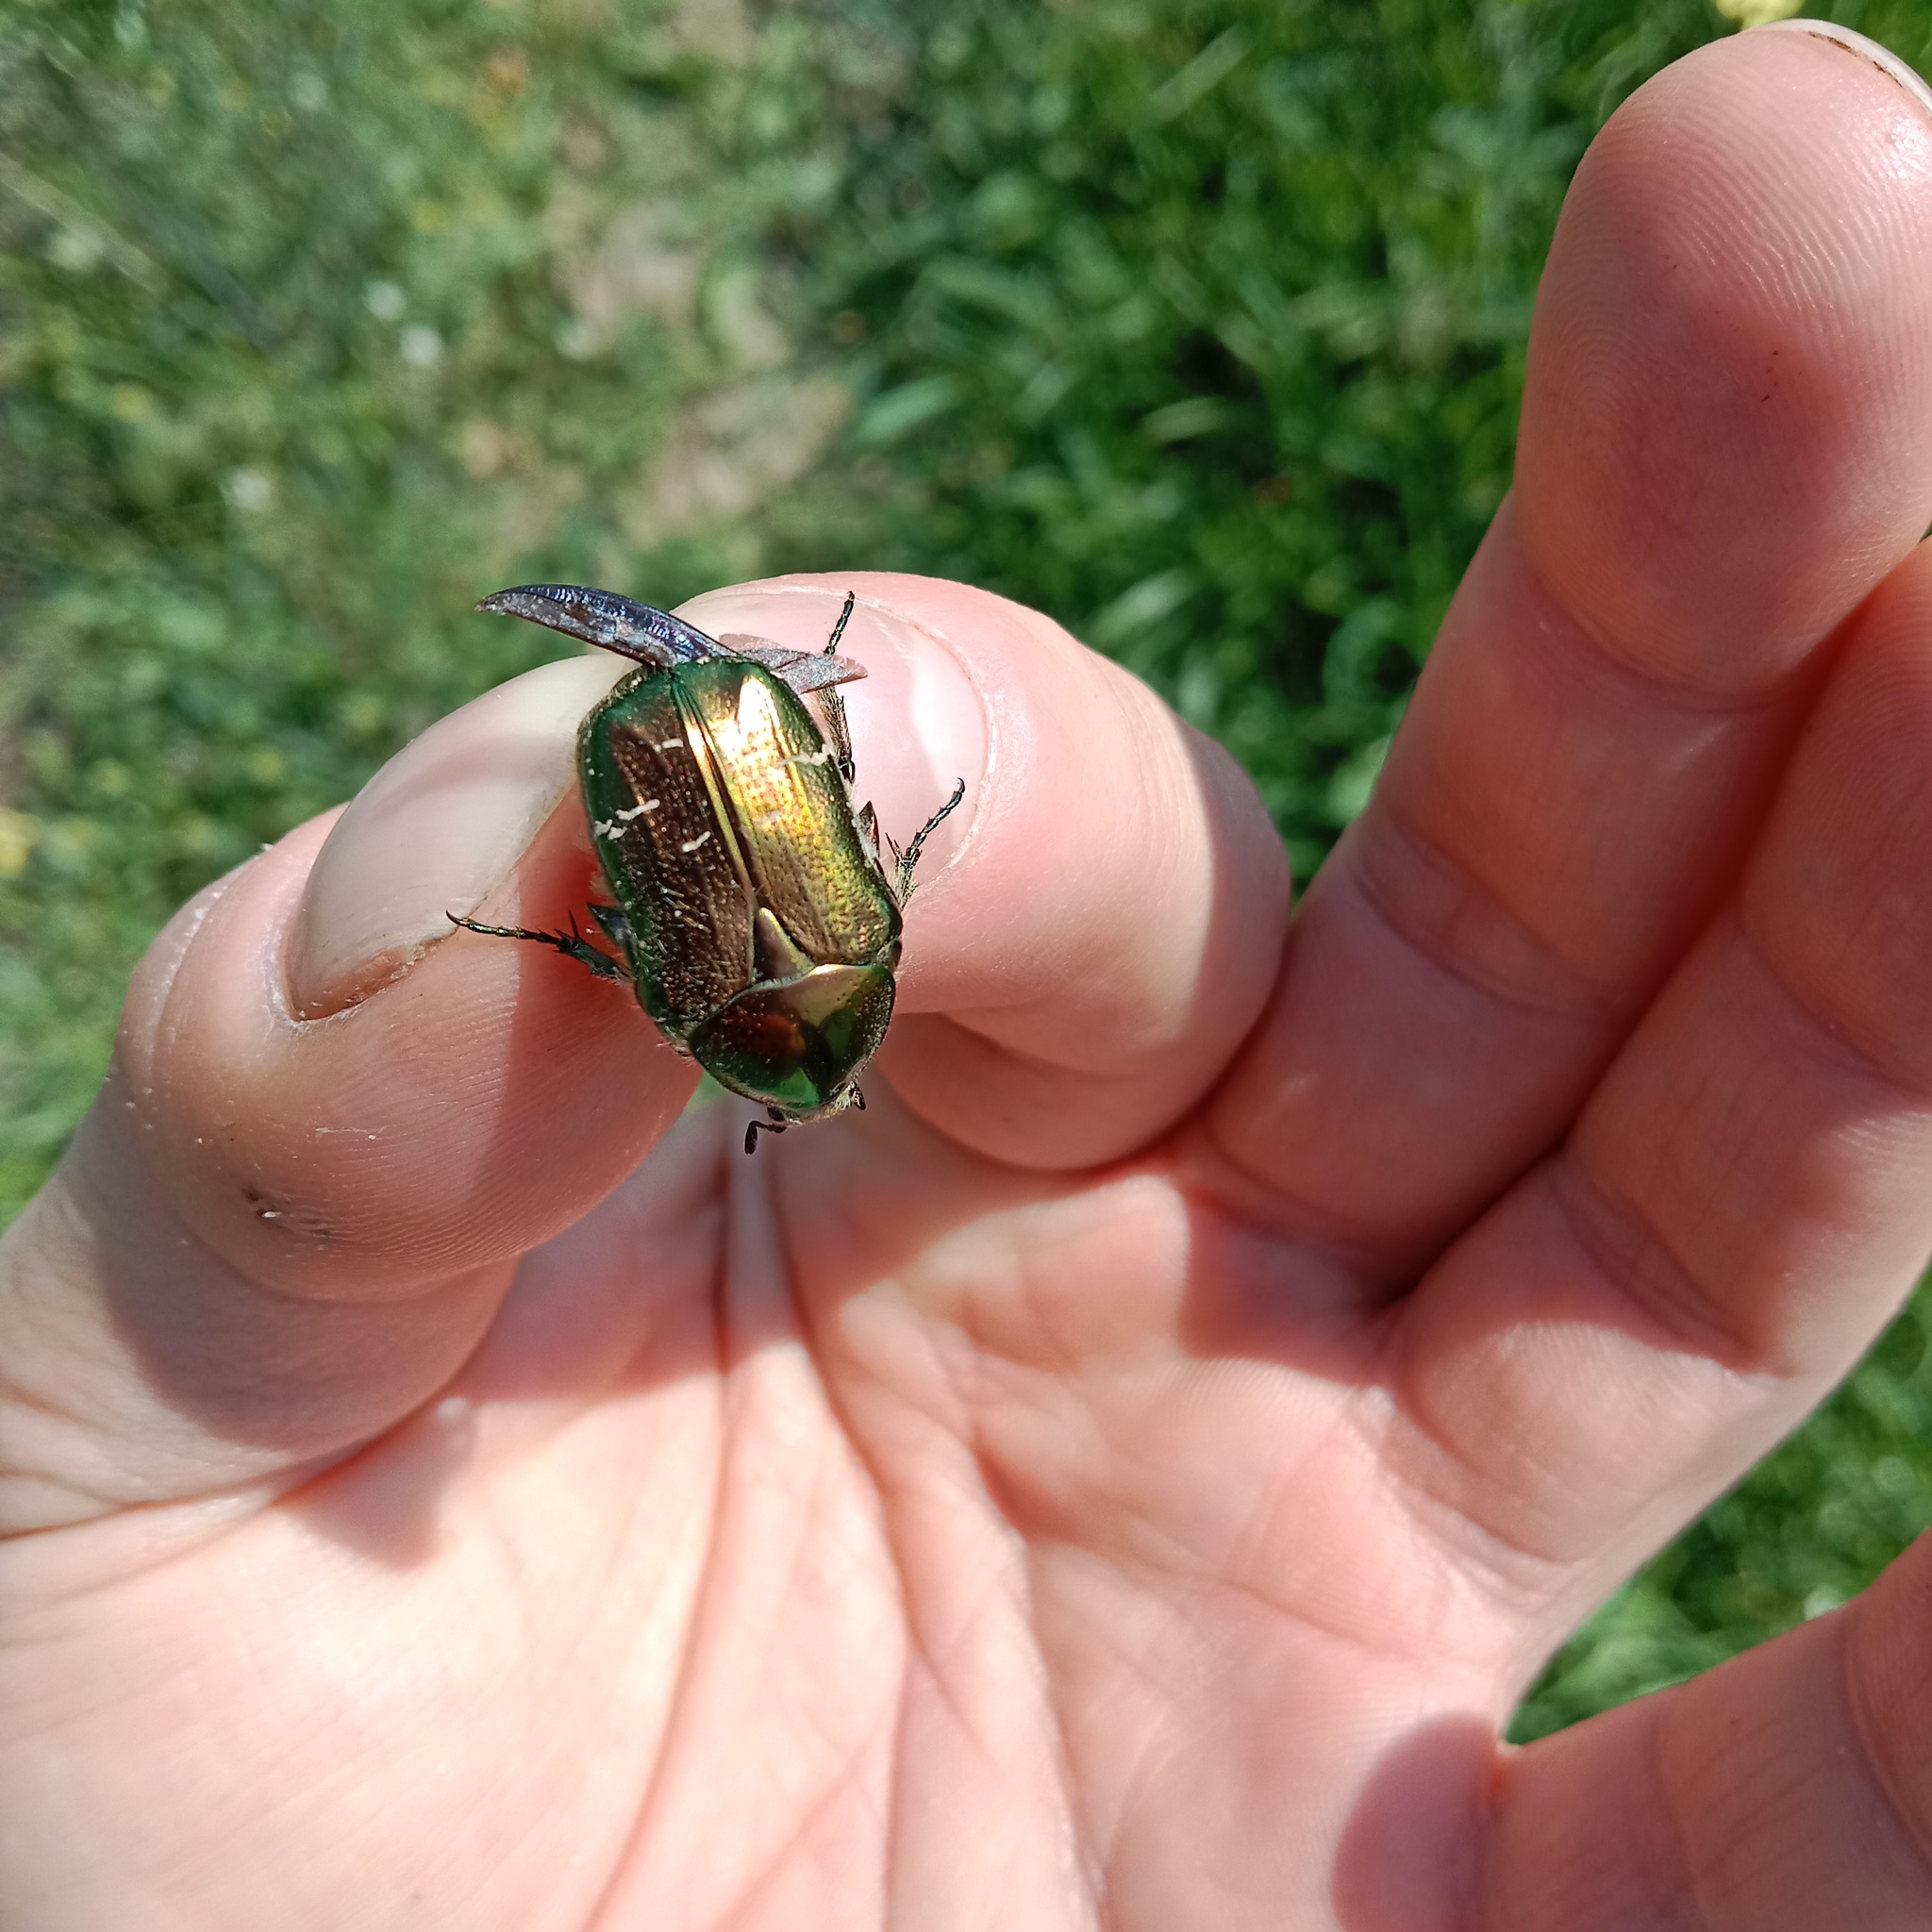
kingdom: Animalia
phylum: Arthropoda
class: Insecta
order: Coleoptera
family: Scarabaeidae
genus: Cetonia
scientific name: Cetonia aurata
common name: Rose chafer
